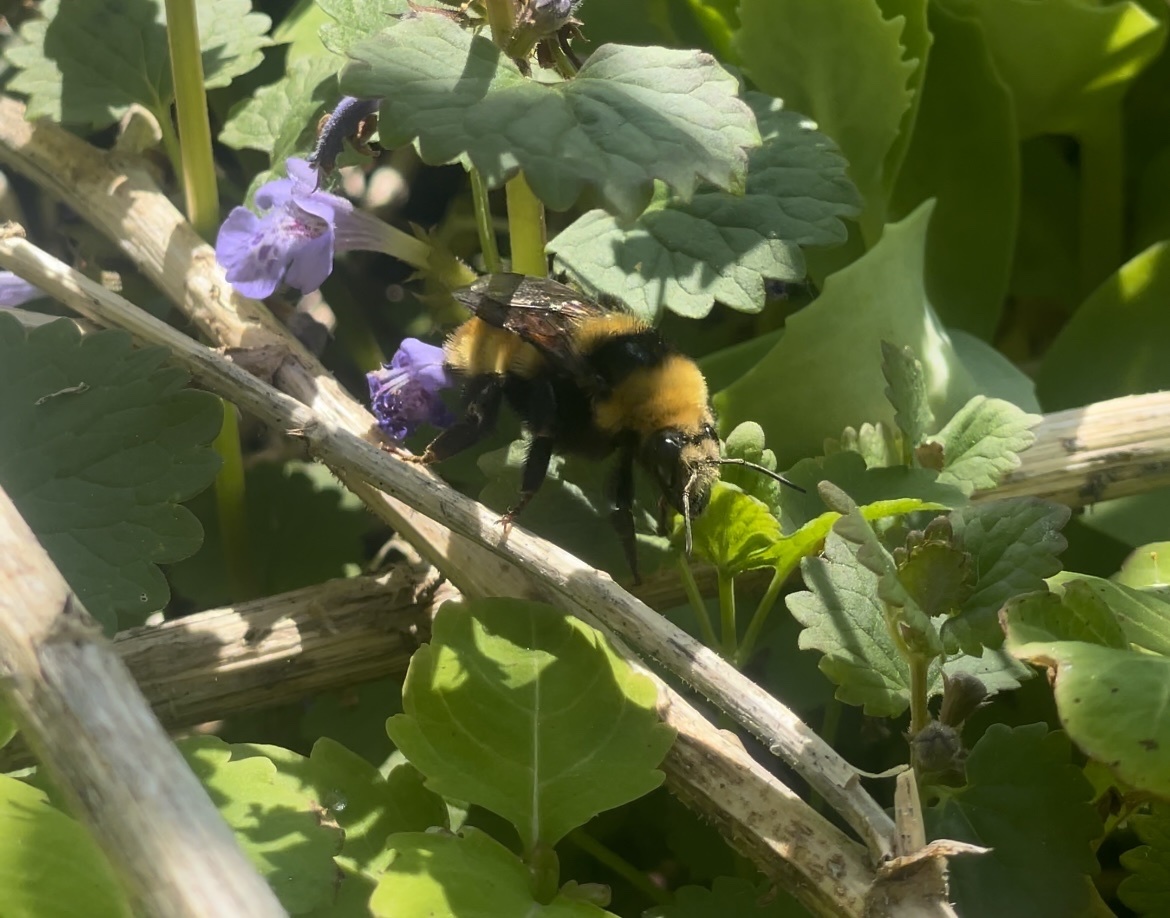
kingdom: Animalia
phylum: Arthropoda
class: Insecta
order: Hymenoptera
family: Apidae
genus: Bombus
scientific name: Bombus borealis
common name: Northern amber bumble bee
